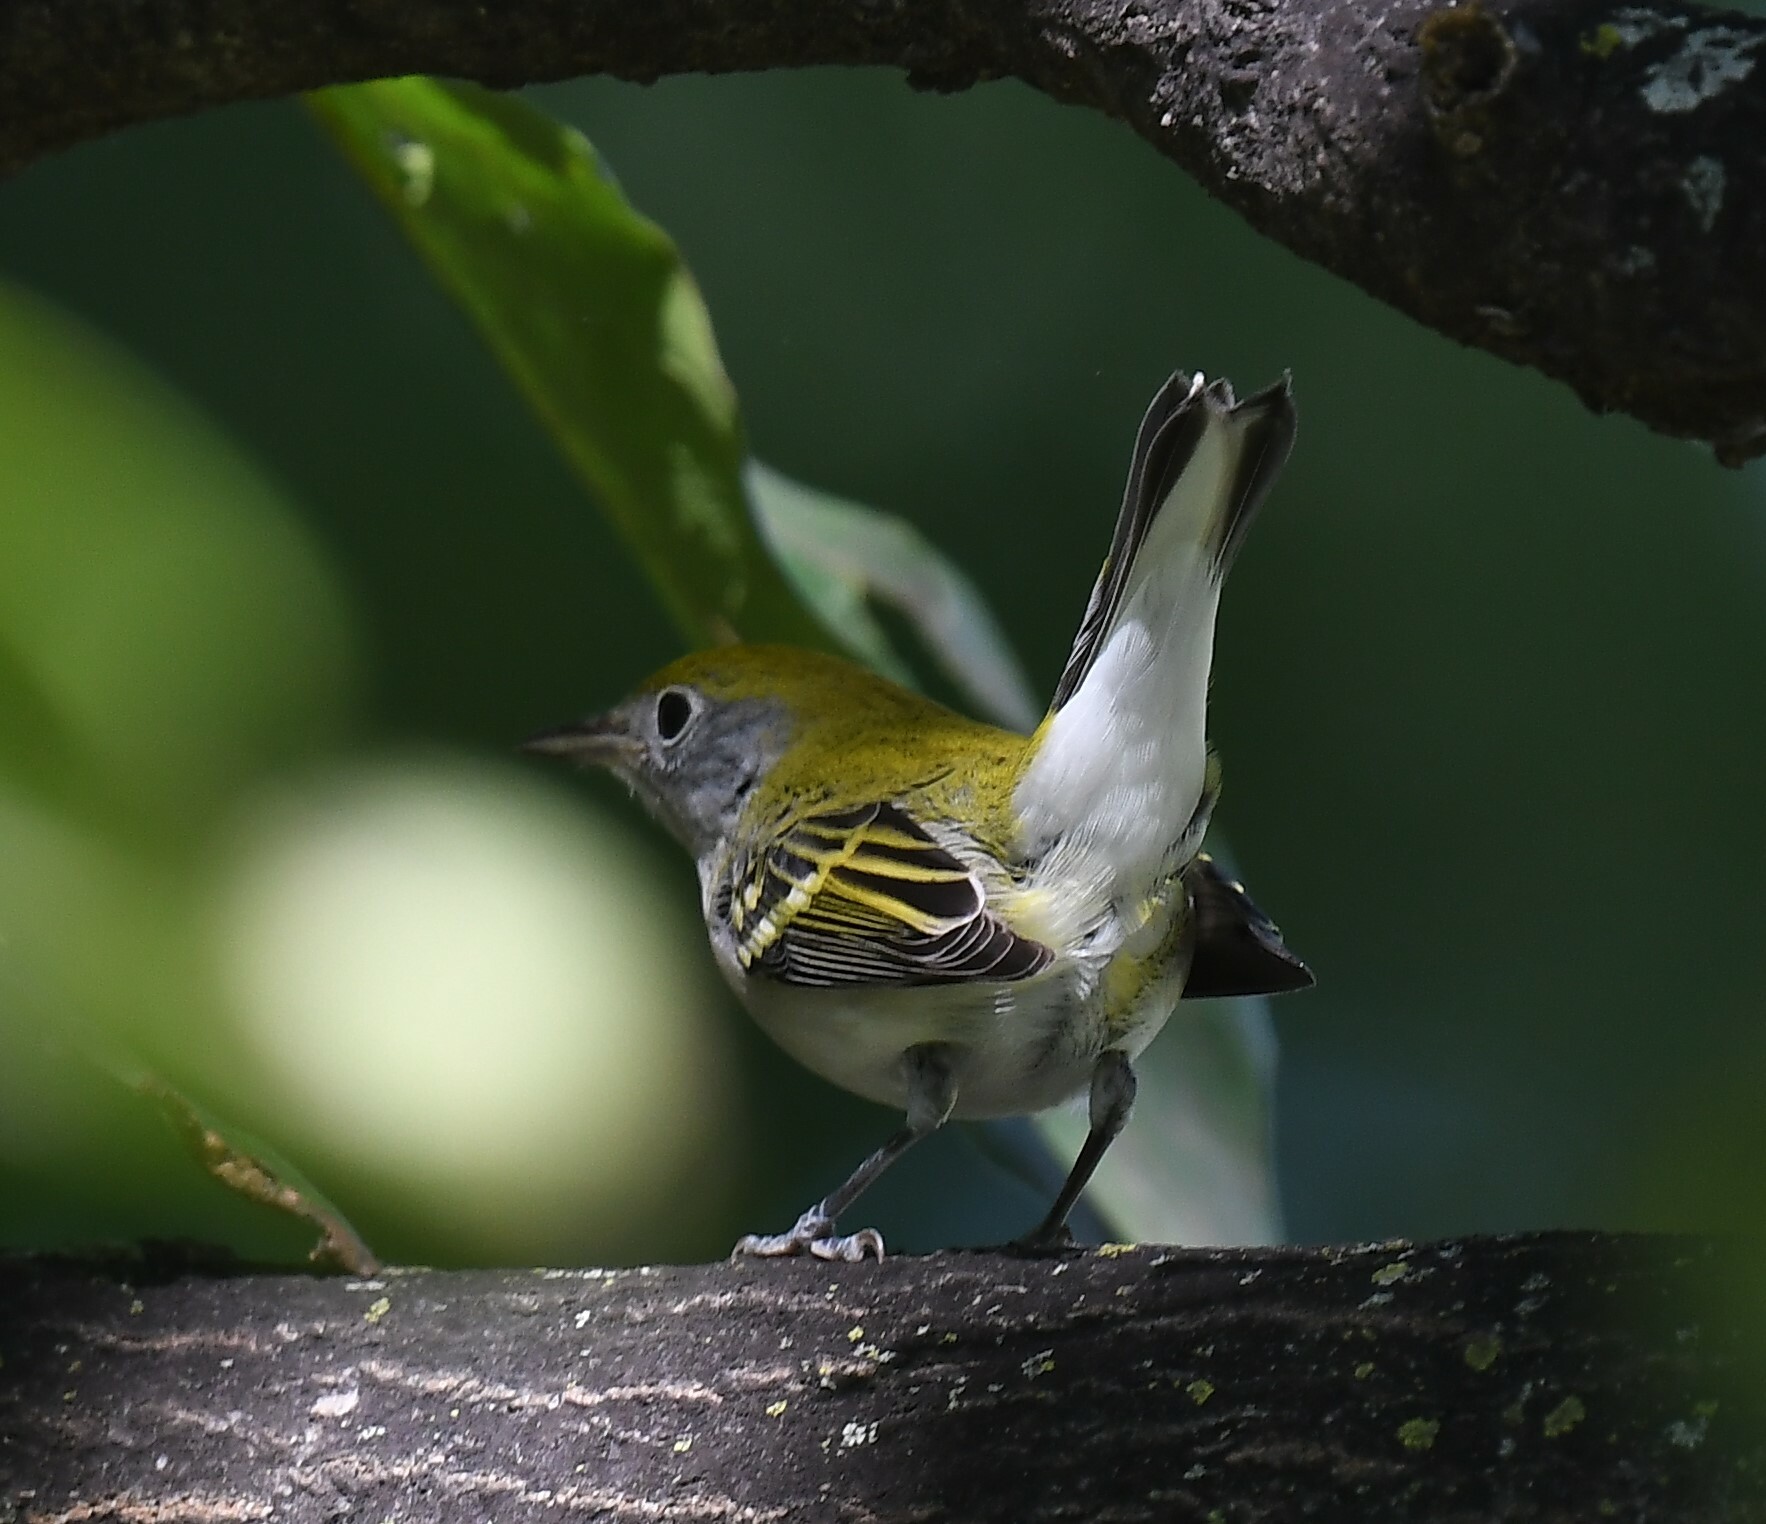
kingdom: Animalia
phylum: Chordata
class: Aves
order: Passeriformes
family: Parulidae
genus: Setophaga
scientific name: Setophaga pensylvanica
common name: Chestnut-sided warbler
